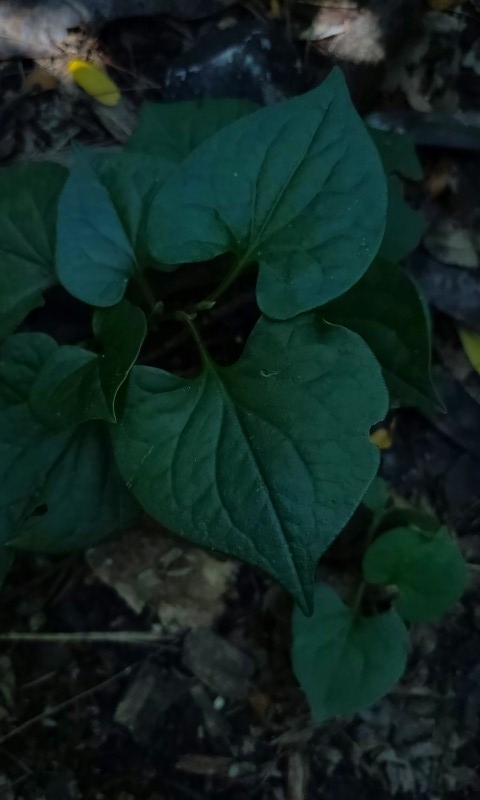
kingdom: Plantae
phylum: Tracheophyta
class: Magnoliopsida
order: Piperales
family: Saururaceae
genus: Houttuynia
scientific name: Houttuynia cordata
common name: Chameleon
